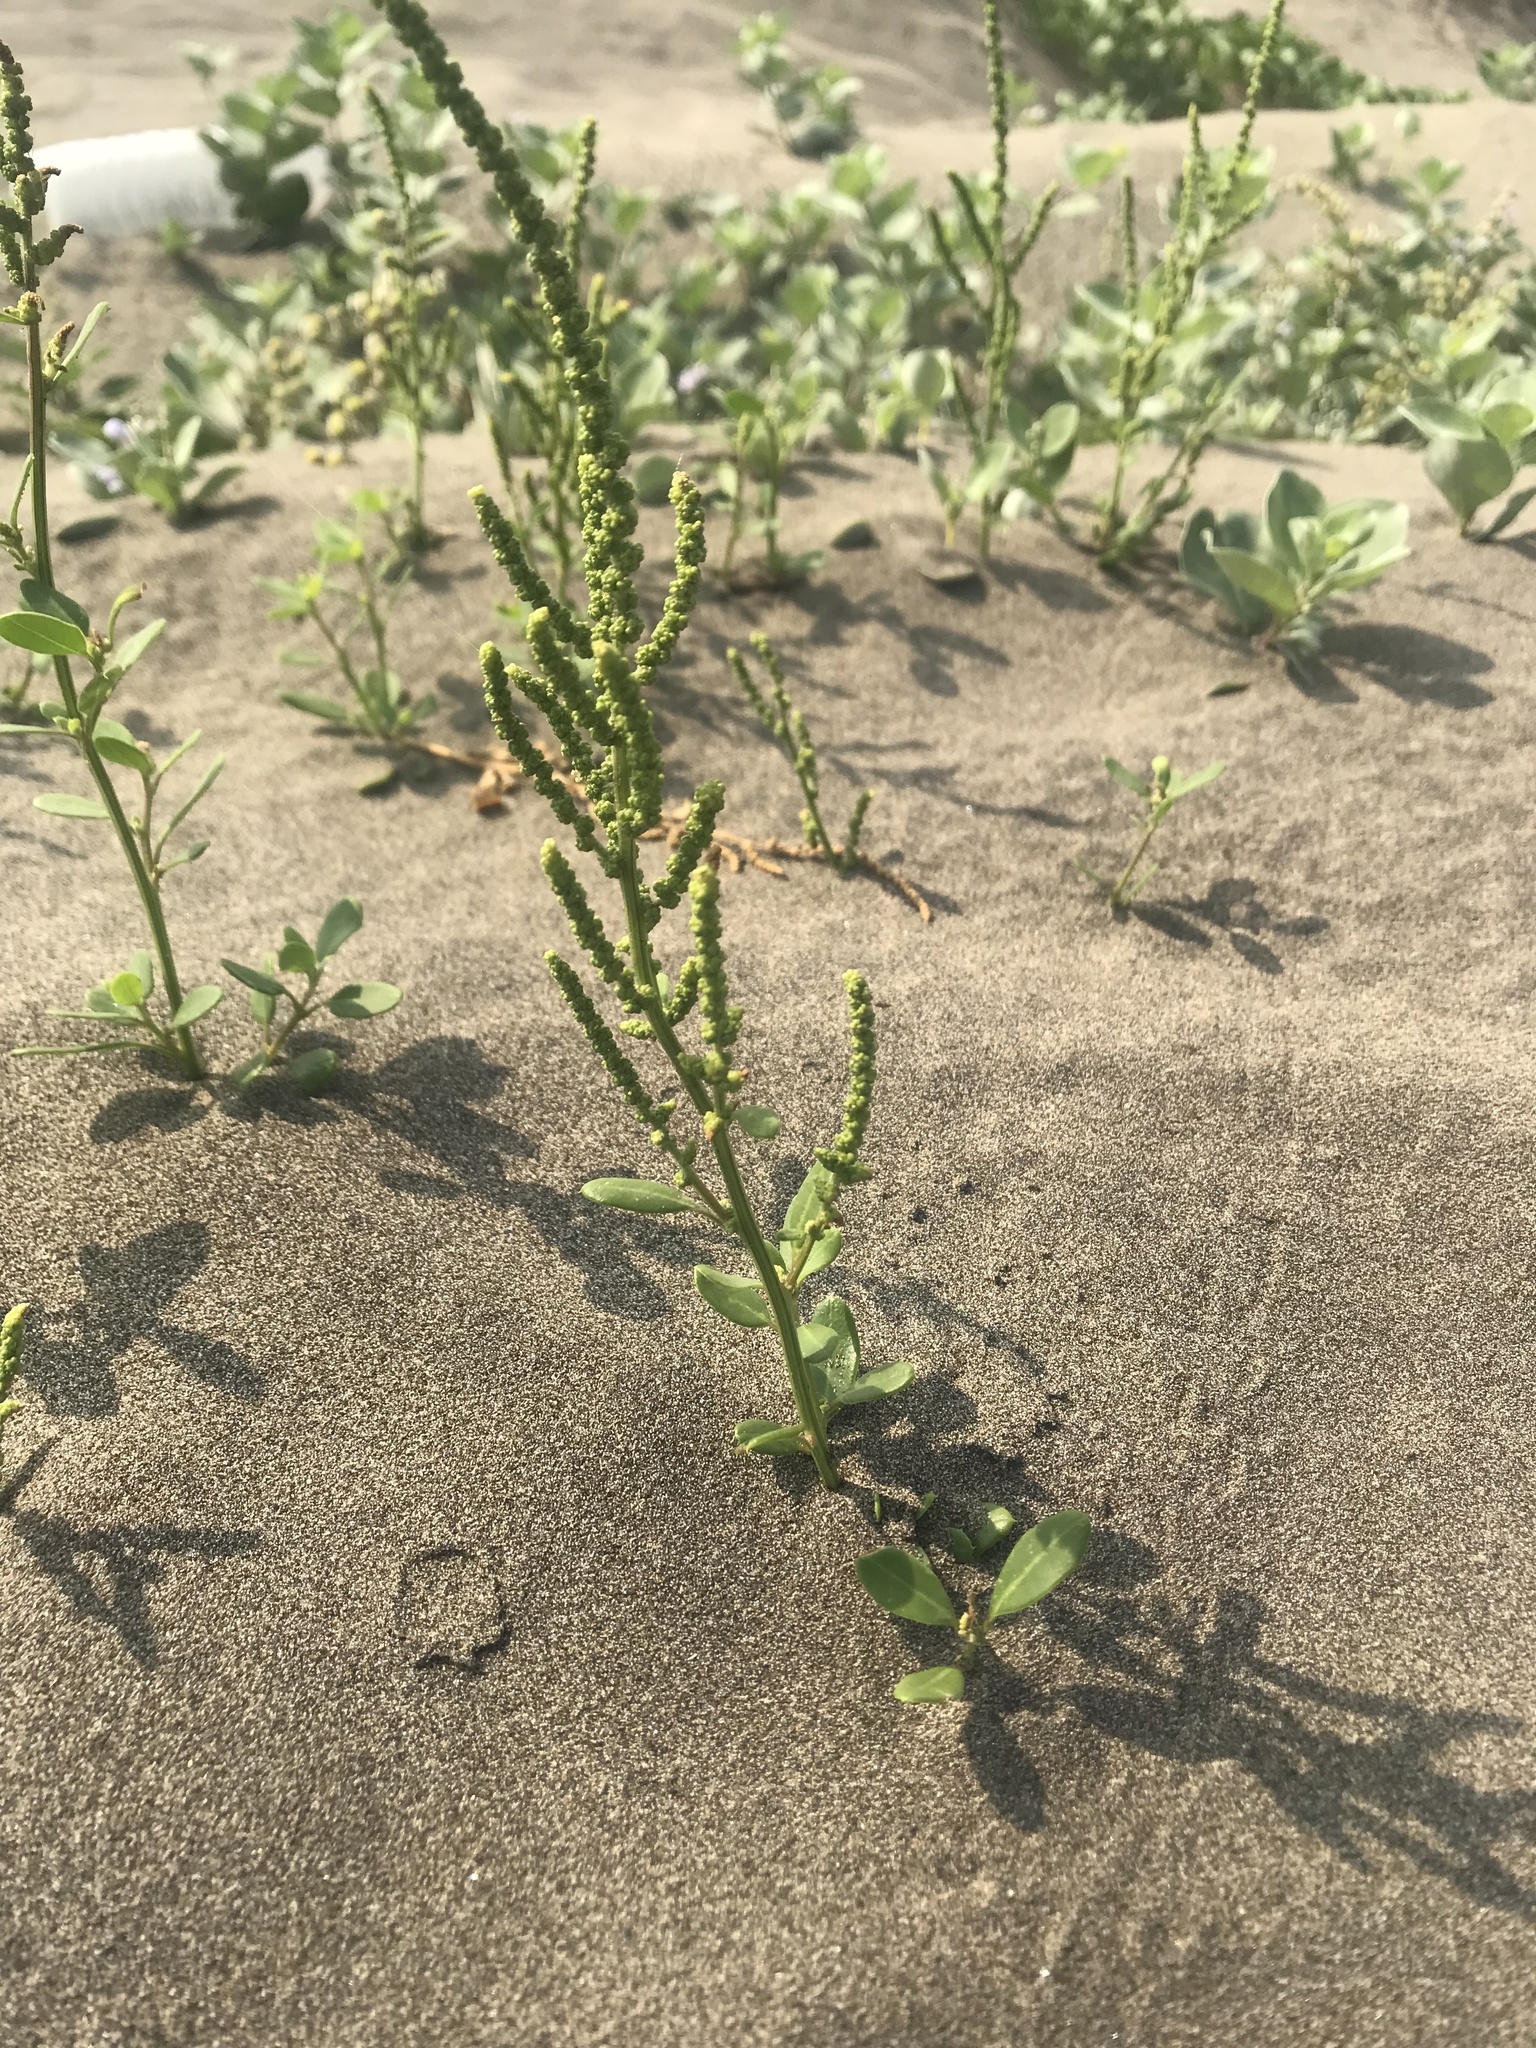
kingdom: Plantae
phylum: Tracheophyta
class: Magnoliopsida
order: Caryophyllales
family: Amaranthaceae
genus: Chenopodium
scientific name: Chenopodium acuminatum
